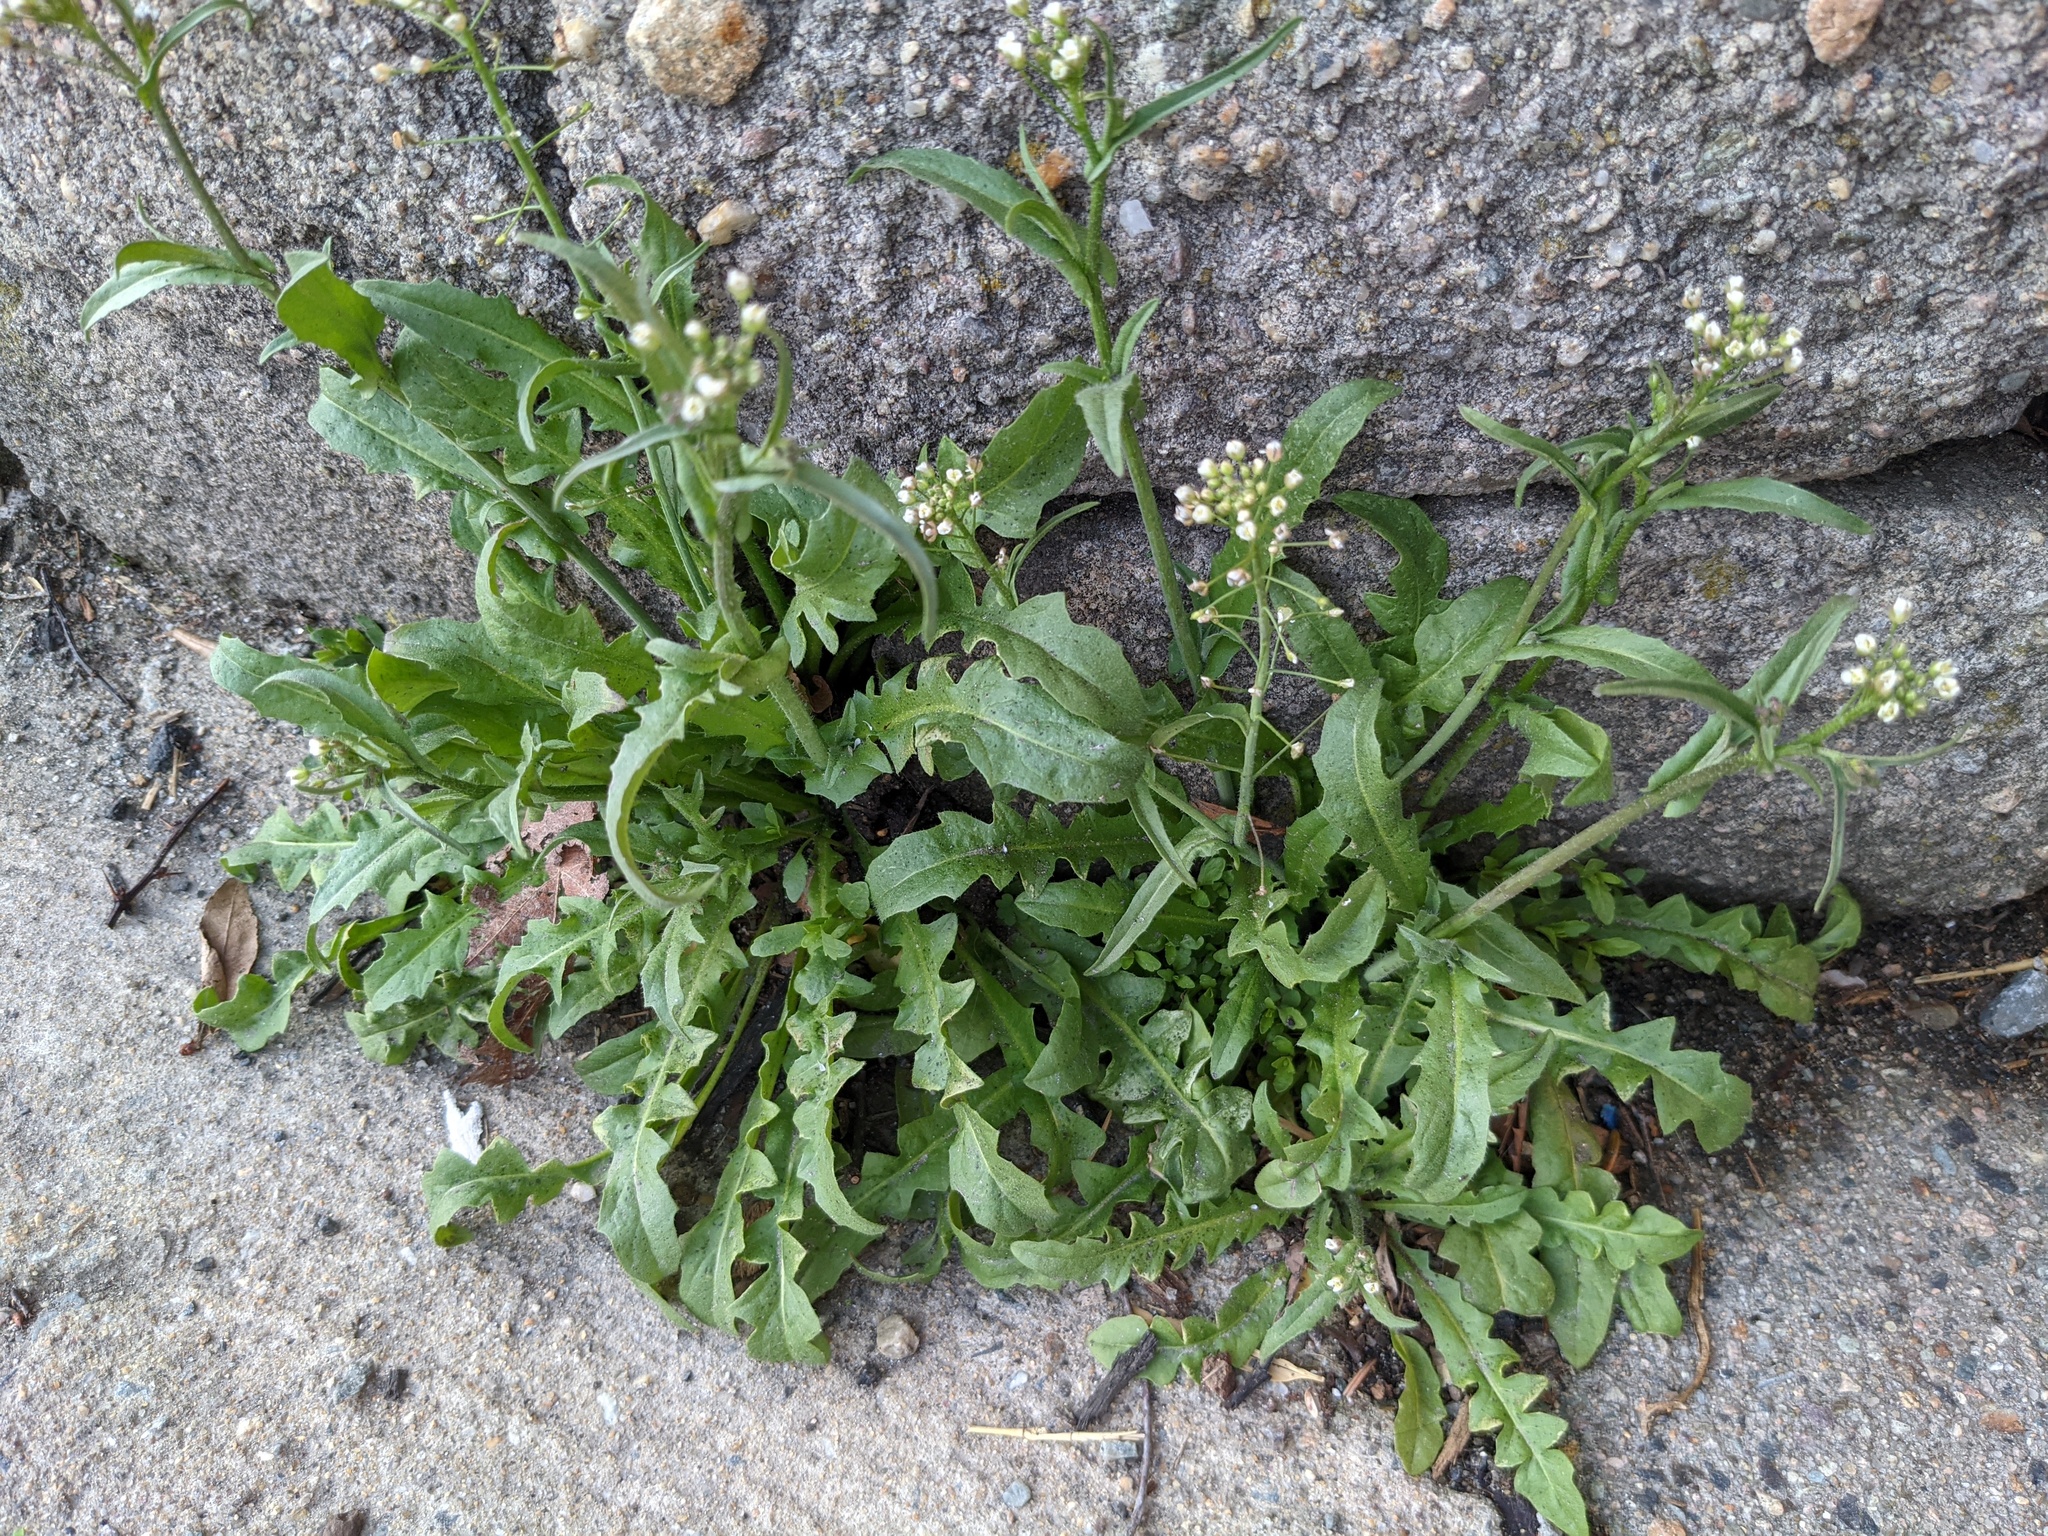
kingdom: Plantae
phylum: Tracheophyta
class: Magnoliopsida
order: Brassicales
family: Brassicaceae
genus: Capsella
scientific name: Capsella bursa-pastoris
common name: Shepherd's purse
